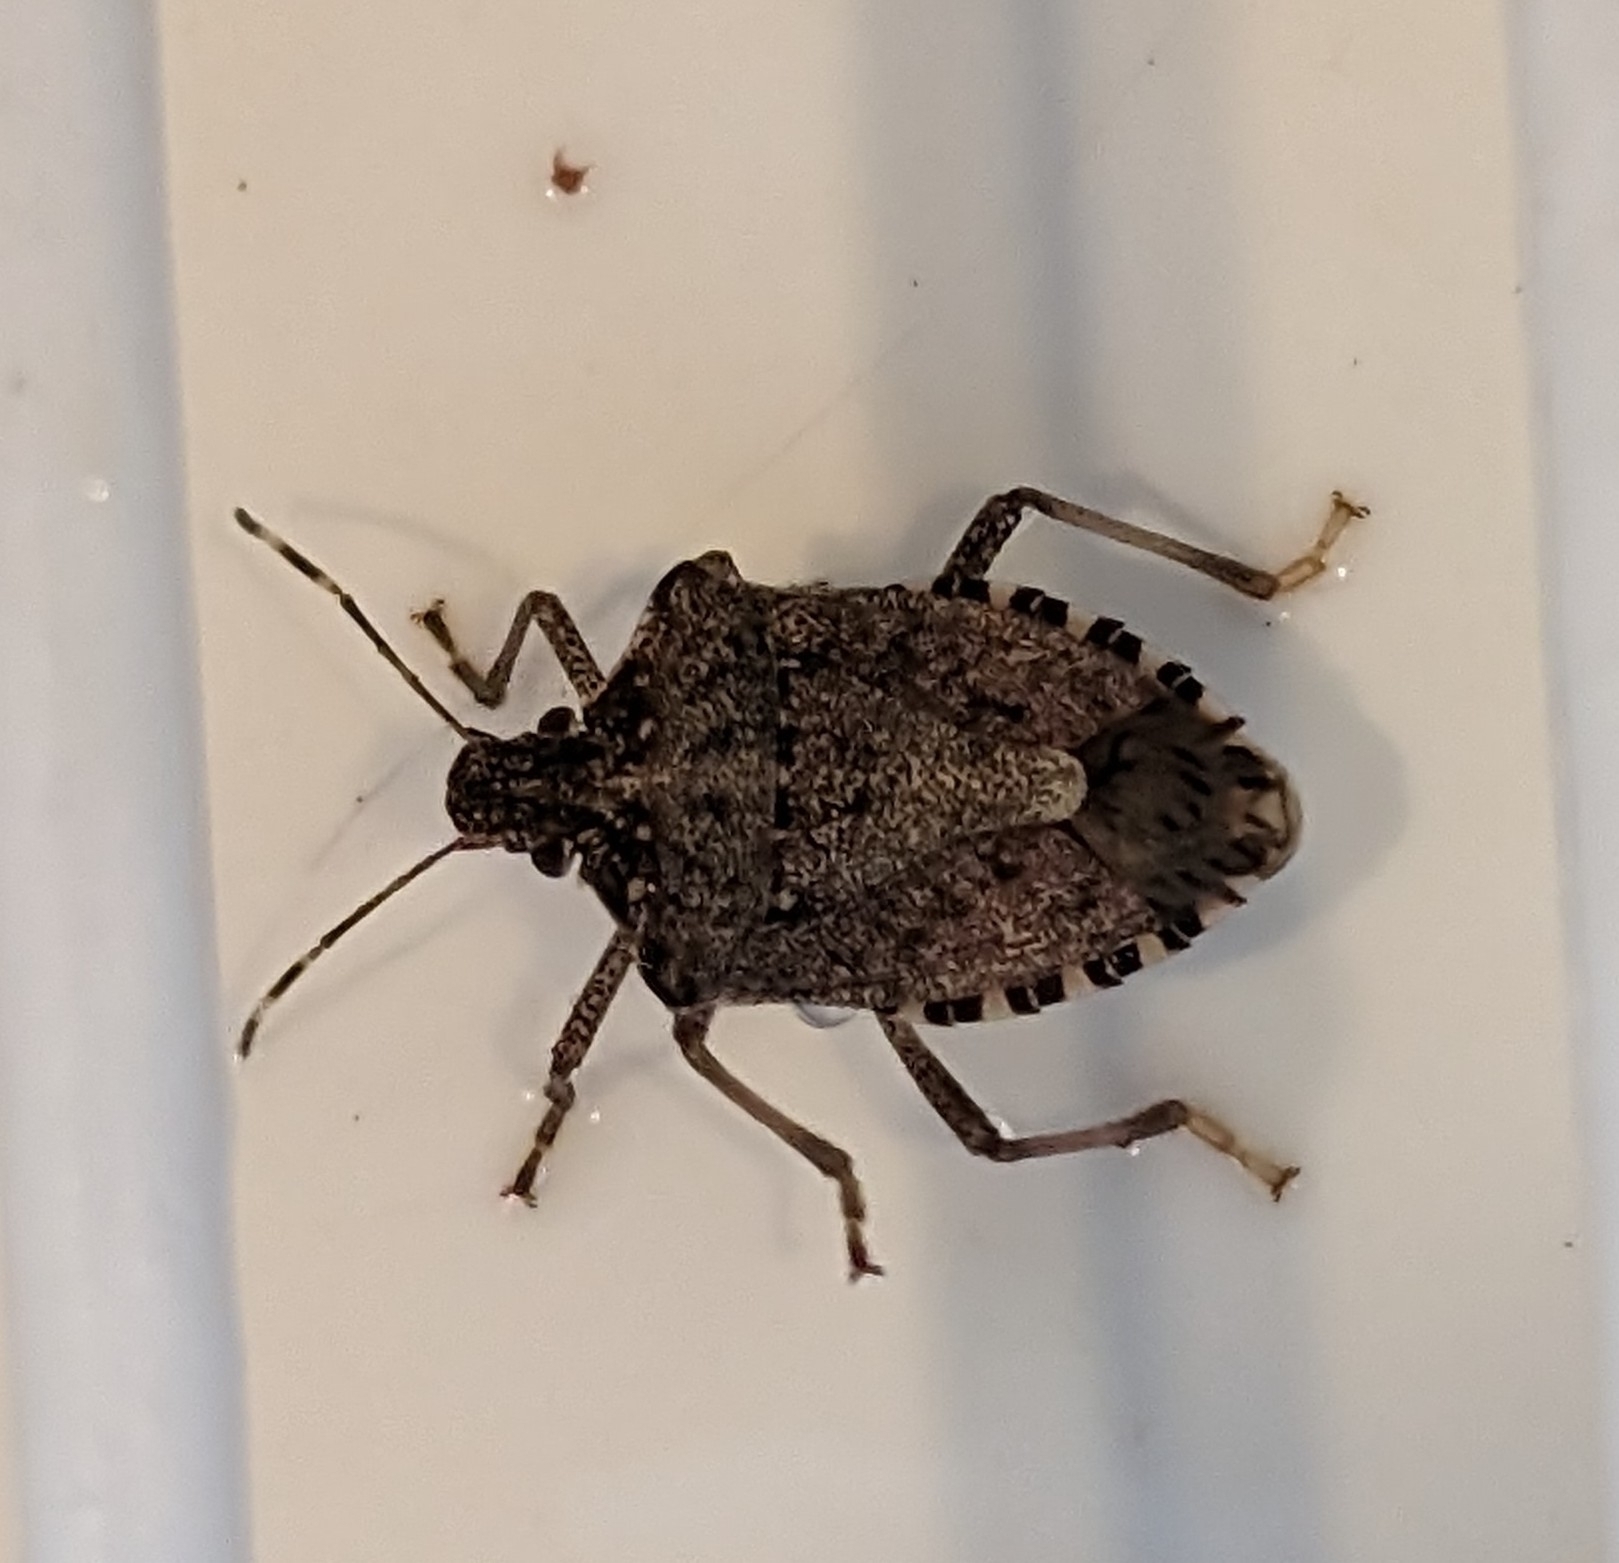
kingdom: Animalia
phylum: Arthropoda
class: Insecta
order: Hemiptera
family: Pentatomidae
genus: Halyomorpha
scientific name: Halyomorpha halys
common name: Brown marmorated stink bug
